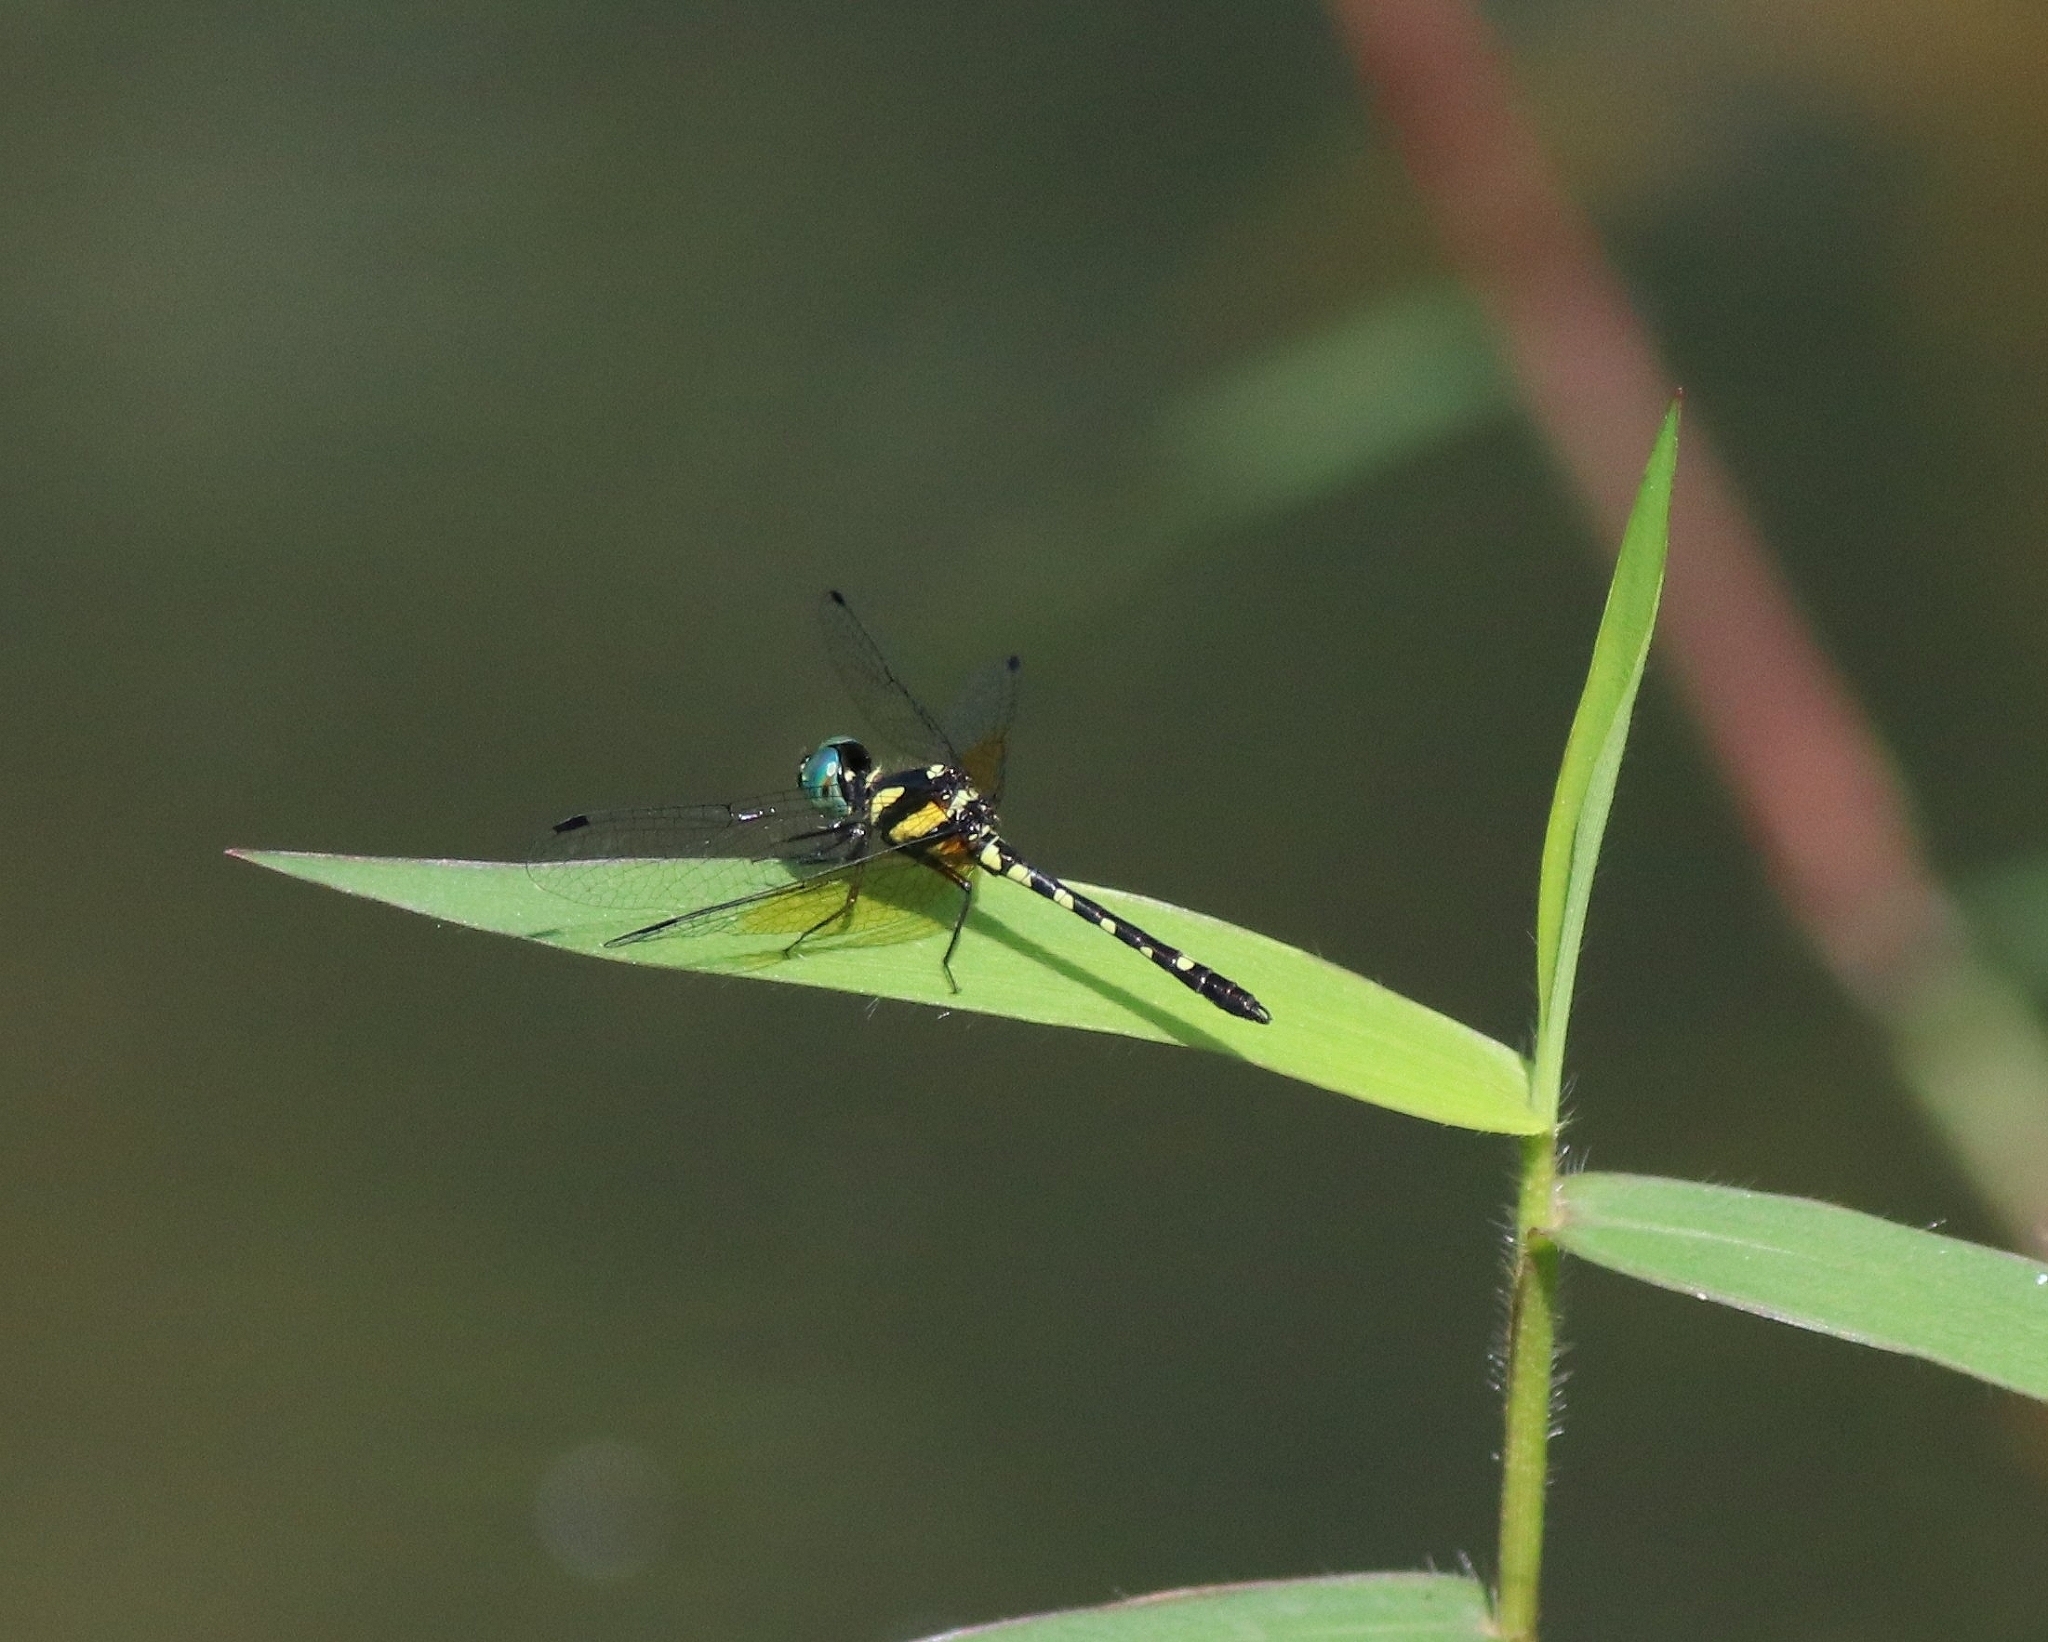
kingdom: Animalia
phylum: Arthropoda
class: Insecta
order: Odonata
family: Libellulidae
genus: Tetrathemis
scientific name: Tetrathemis platyptera
